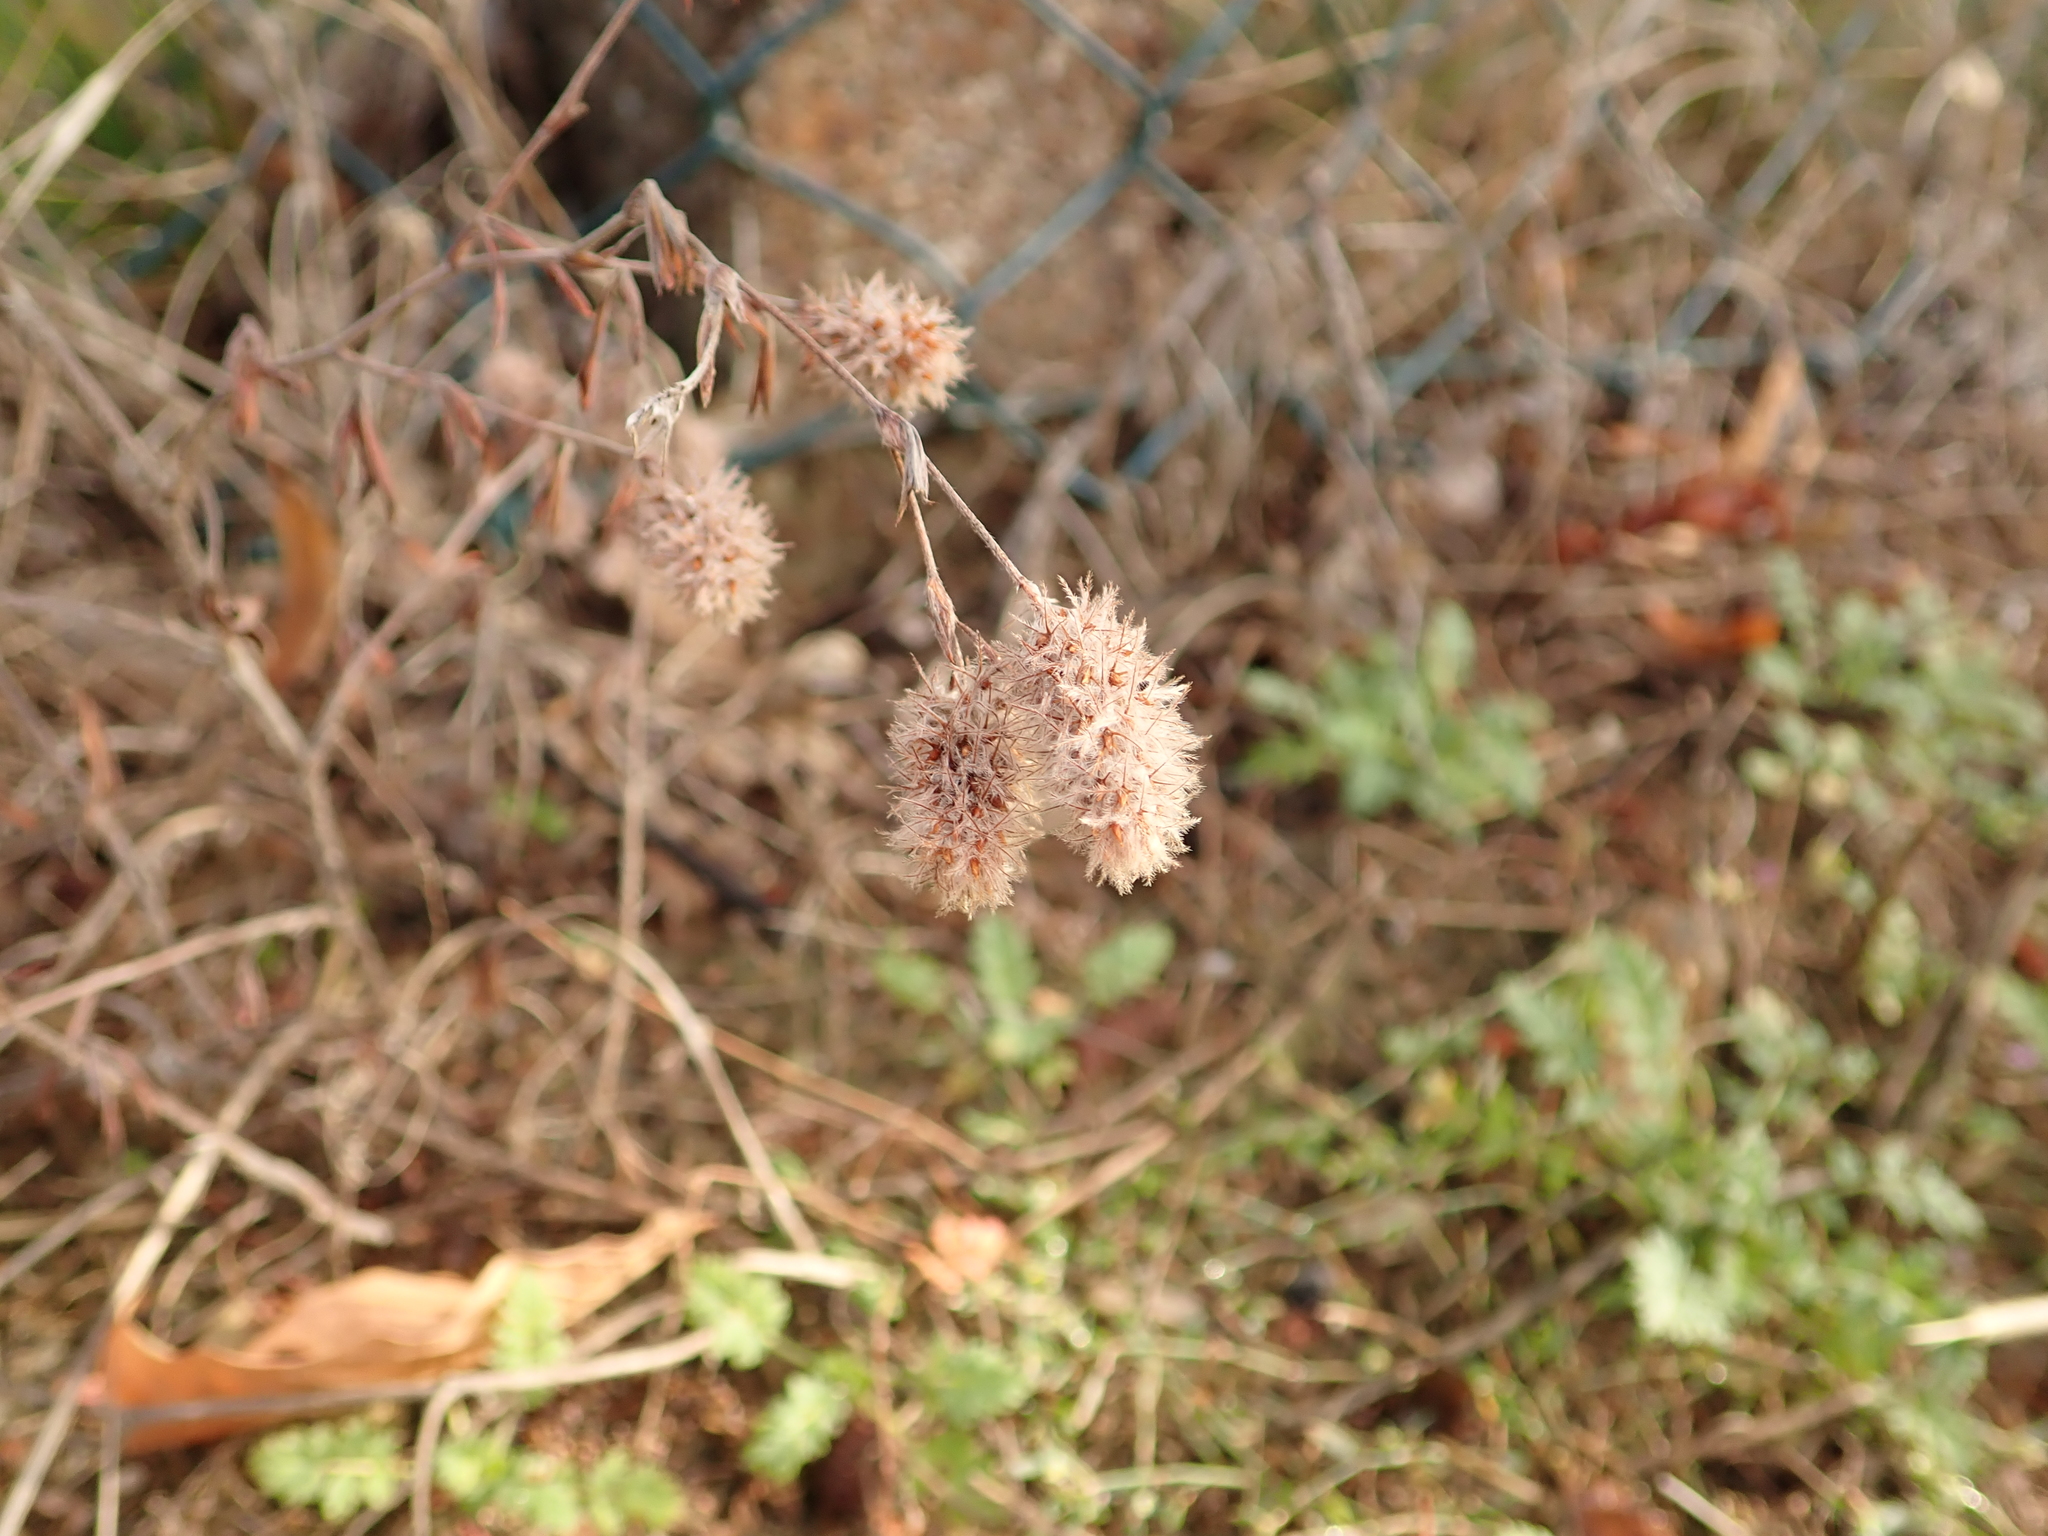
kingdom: Plantae
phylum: Tracheophyta
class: Magnoliopsida
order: Fabales
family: Fabaceae
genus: Trifolium
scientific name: Trifolium arvense
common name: Hare's-foot clover
